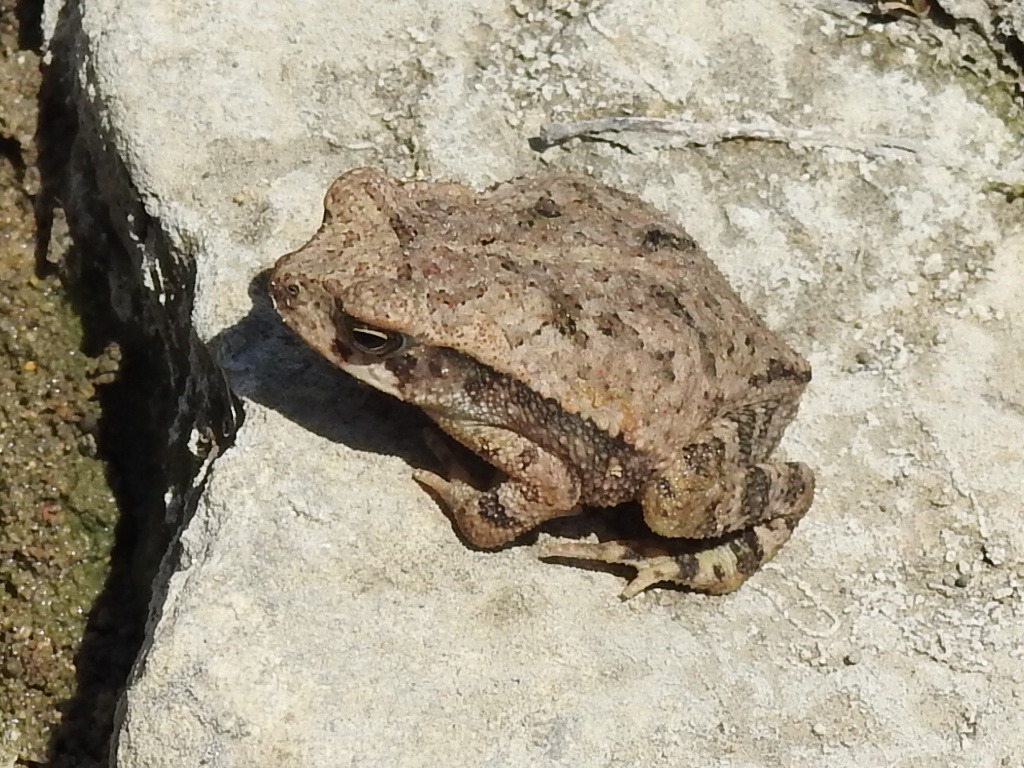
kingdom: Animalia
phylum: Chordata
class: Amphibia
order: Anura
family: Bufonidae
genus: Incilius
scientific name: Incilius nebulifer
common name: Gulf coast toad
